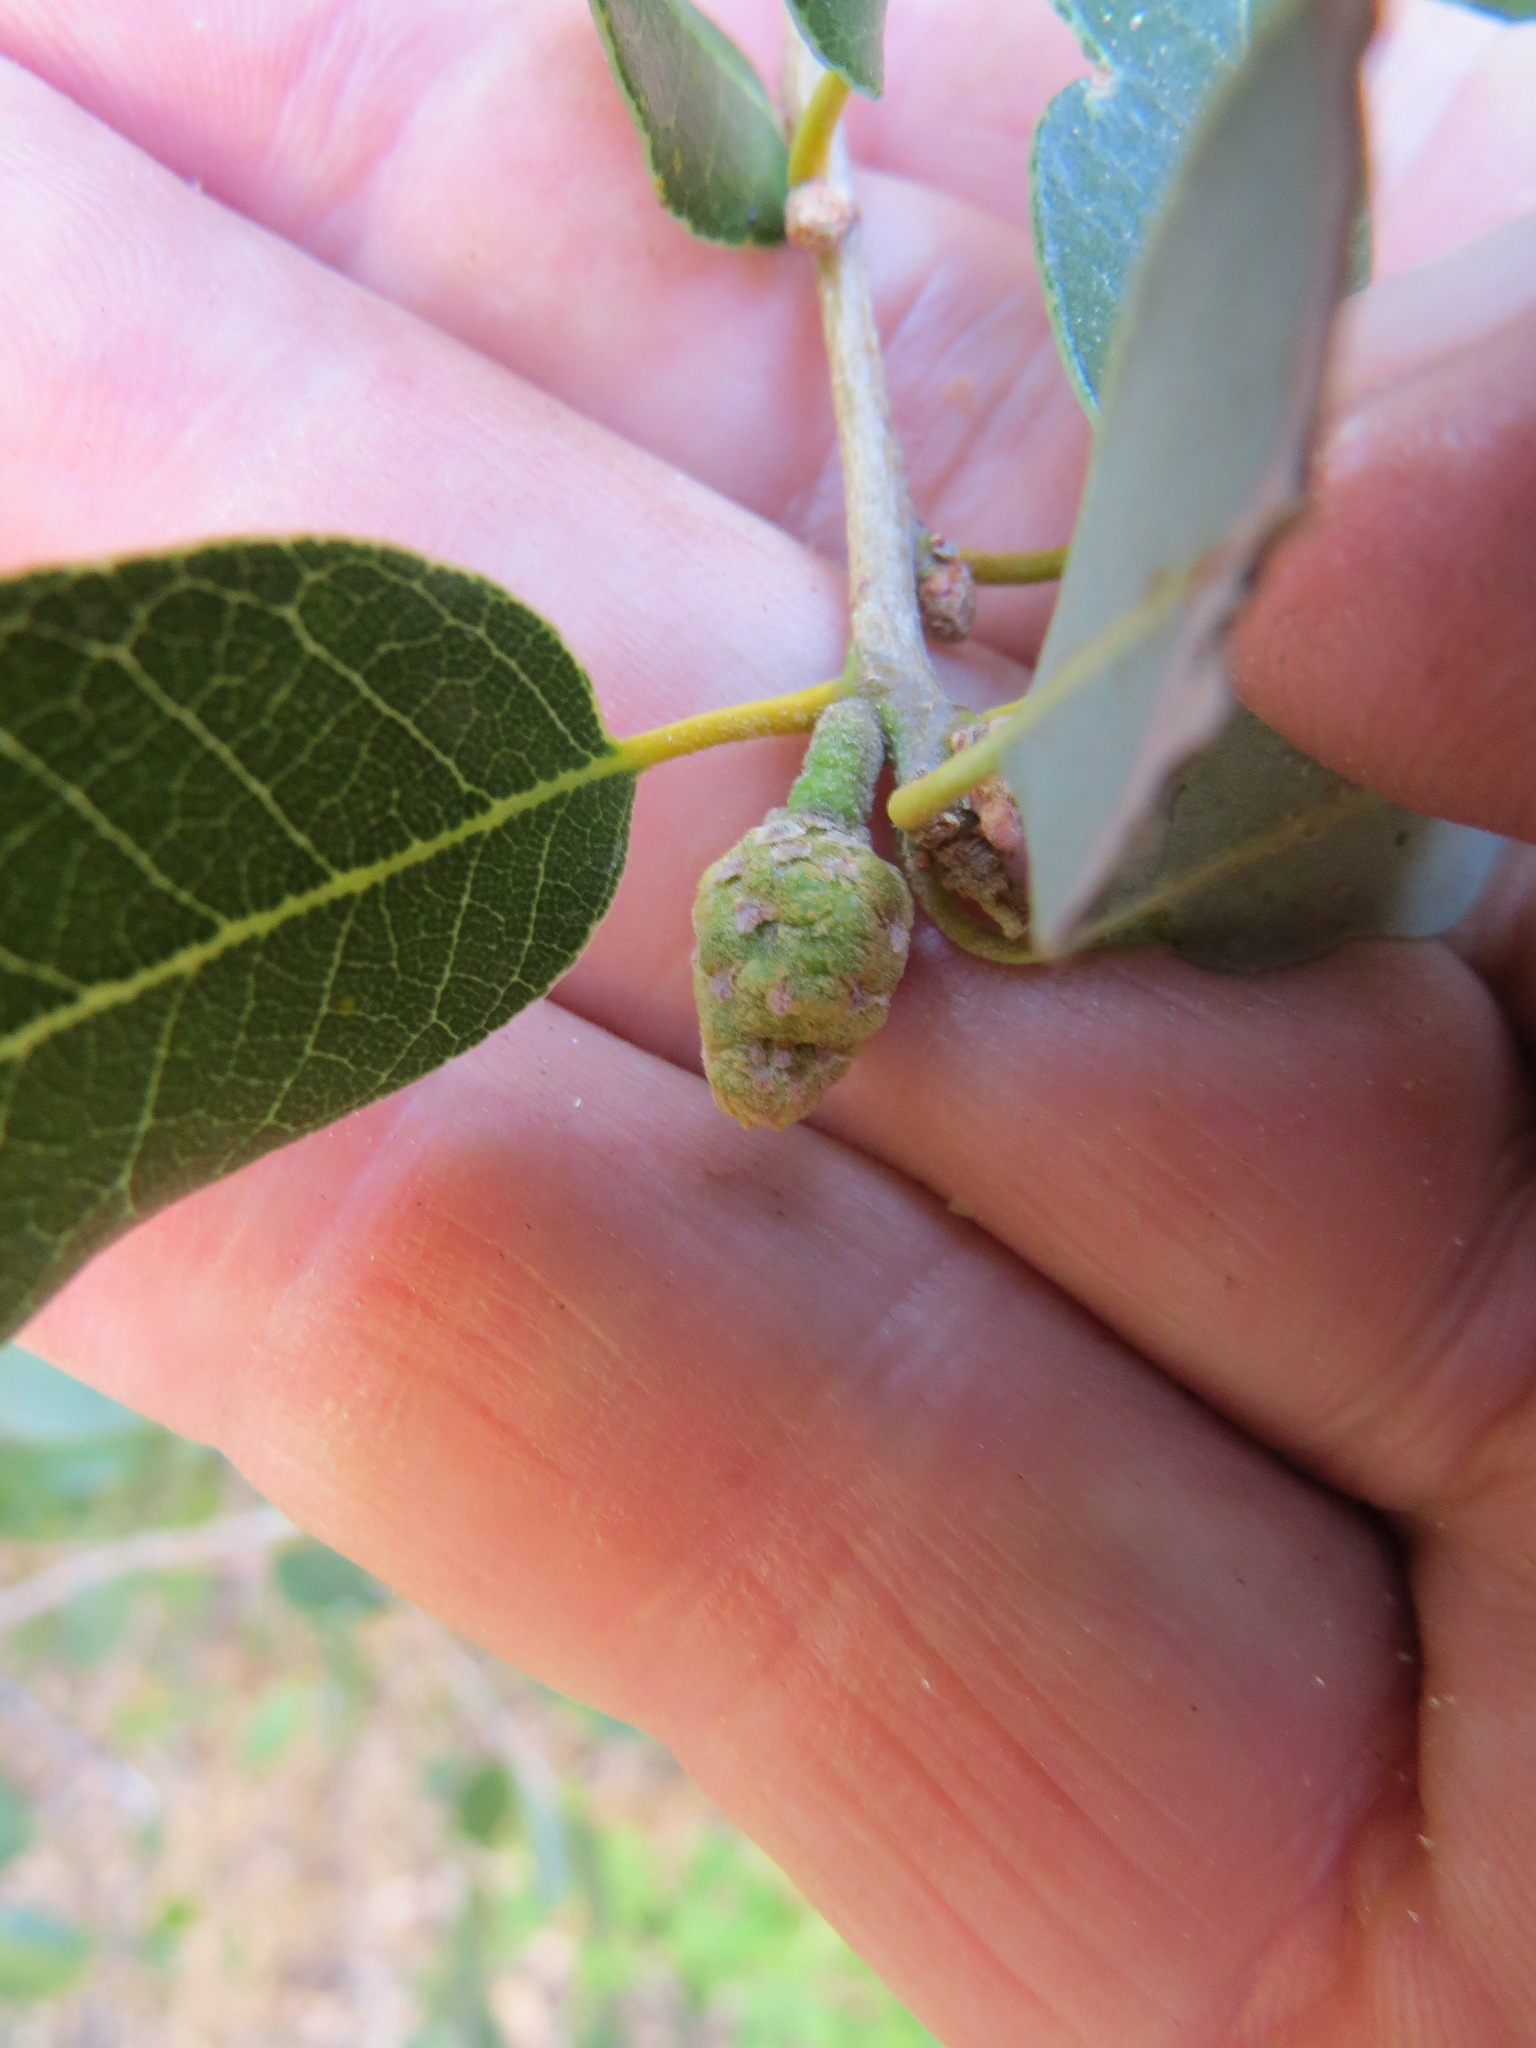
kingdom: Plantae
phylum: Tracheophyta
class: Magnoliopsida
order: Fagales
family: Fagaceae
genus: Quercus
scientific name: Quercus chrysolepis
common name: Canyon live oak
